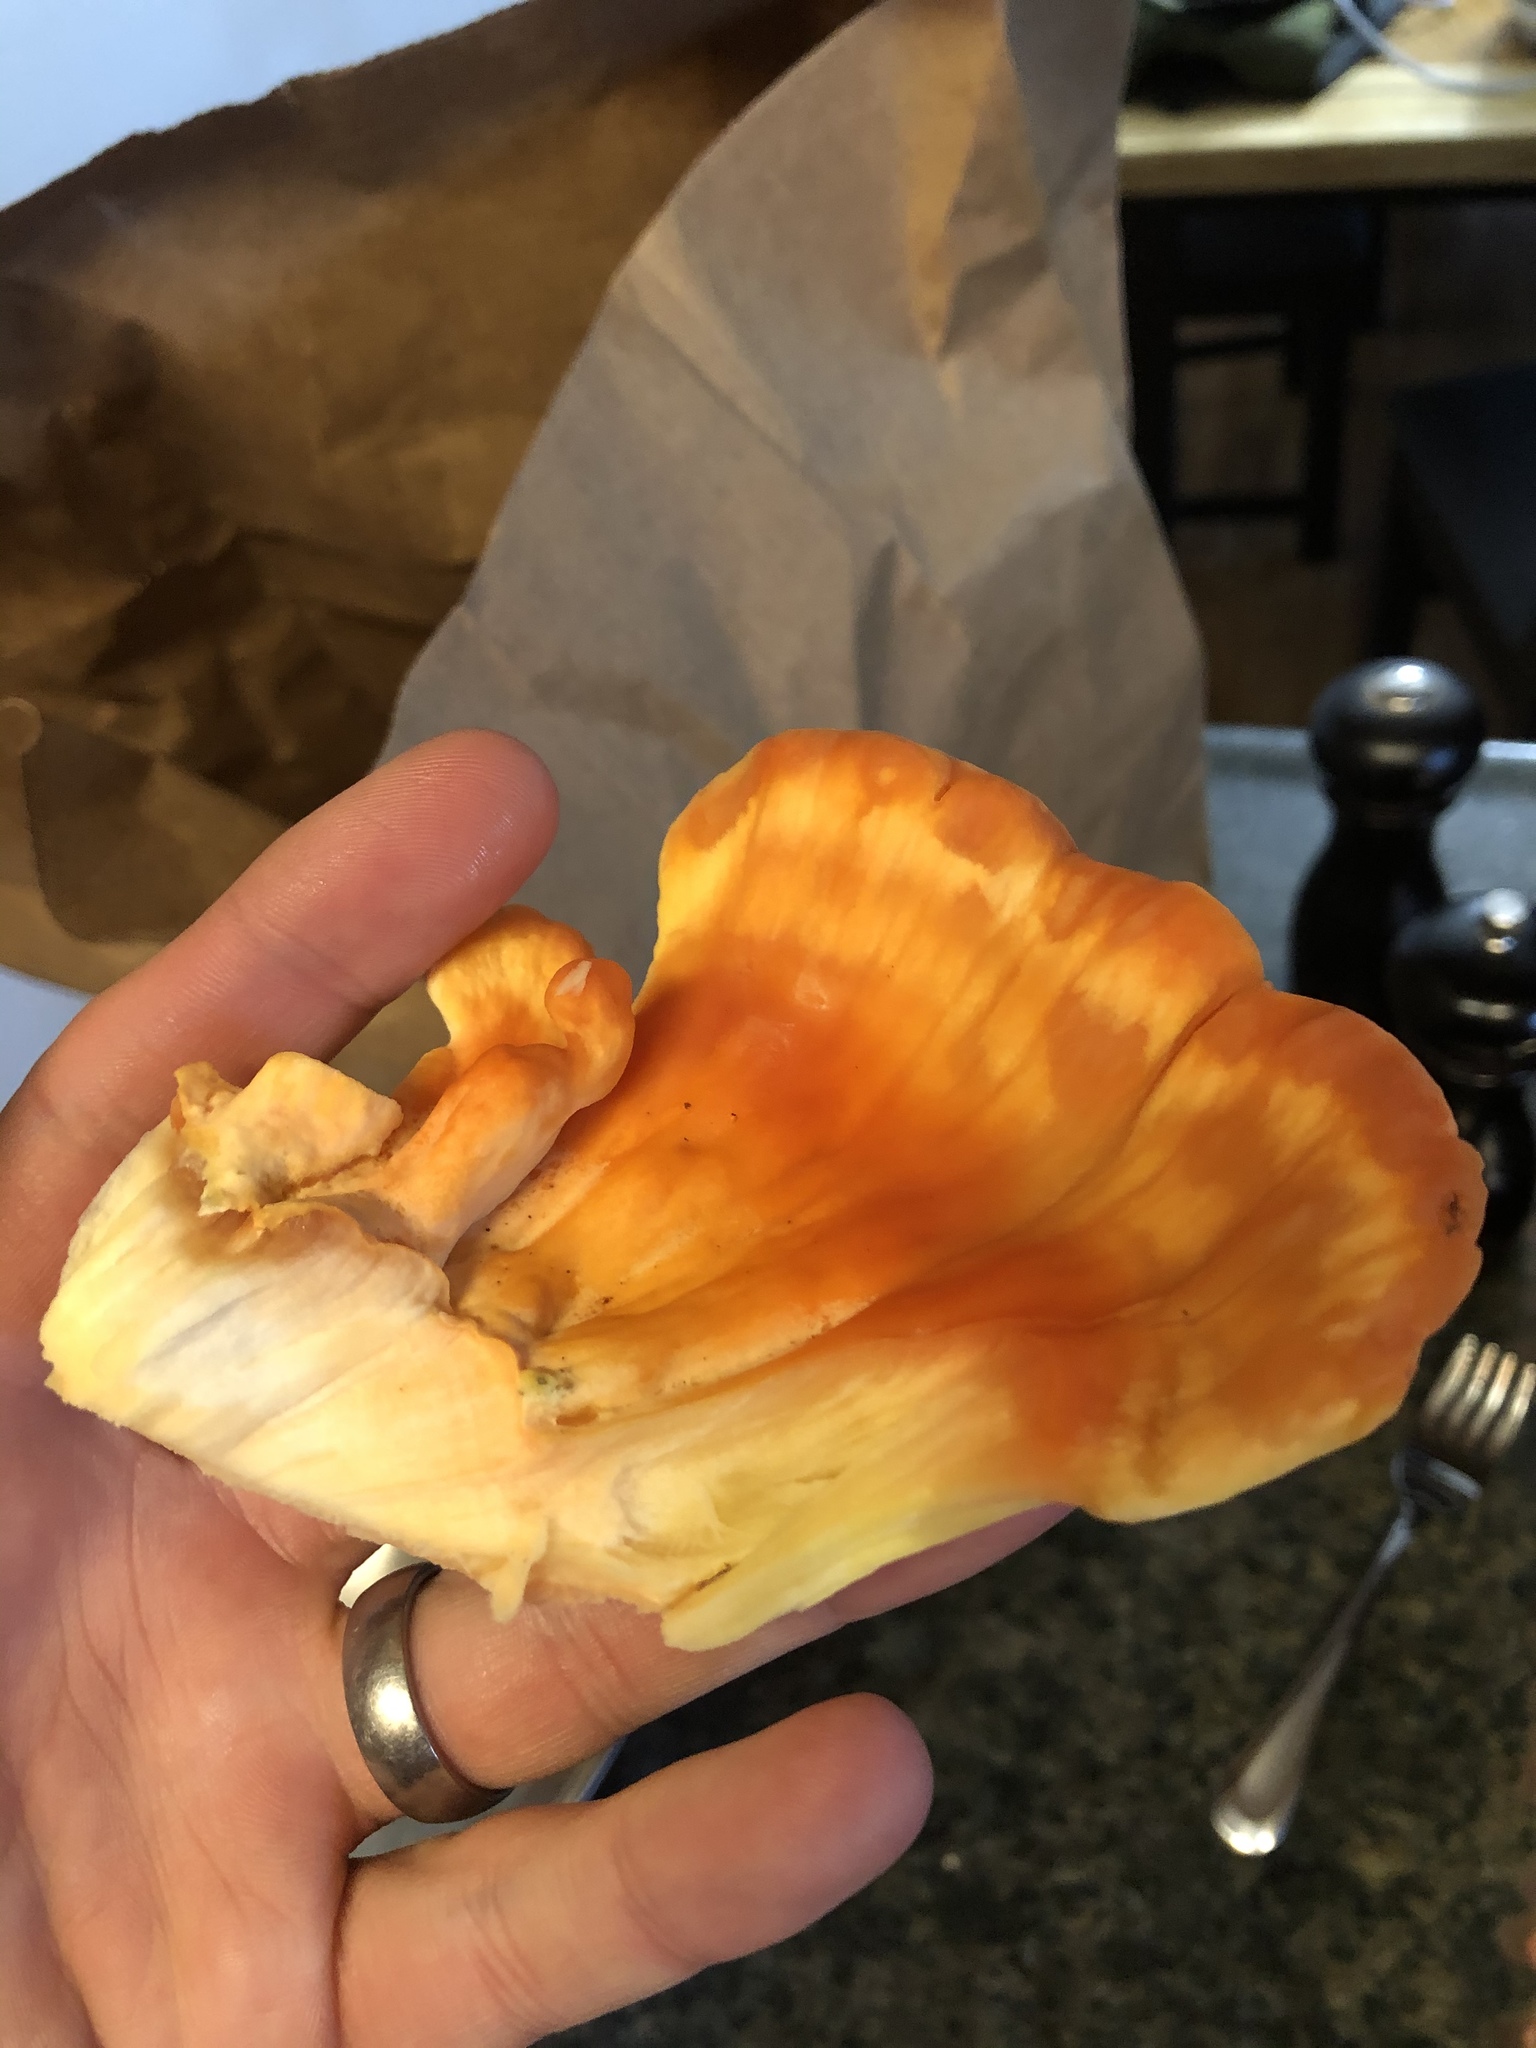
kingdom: Fungi
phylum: Basidiomycota
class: Agaricomycetes
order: Polyporales
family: Laetiporaceae
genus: Laetiporus
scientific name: Laetiporus sulphureus
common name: Chicken of the woods
